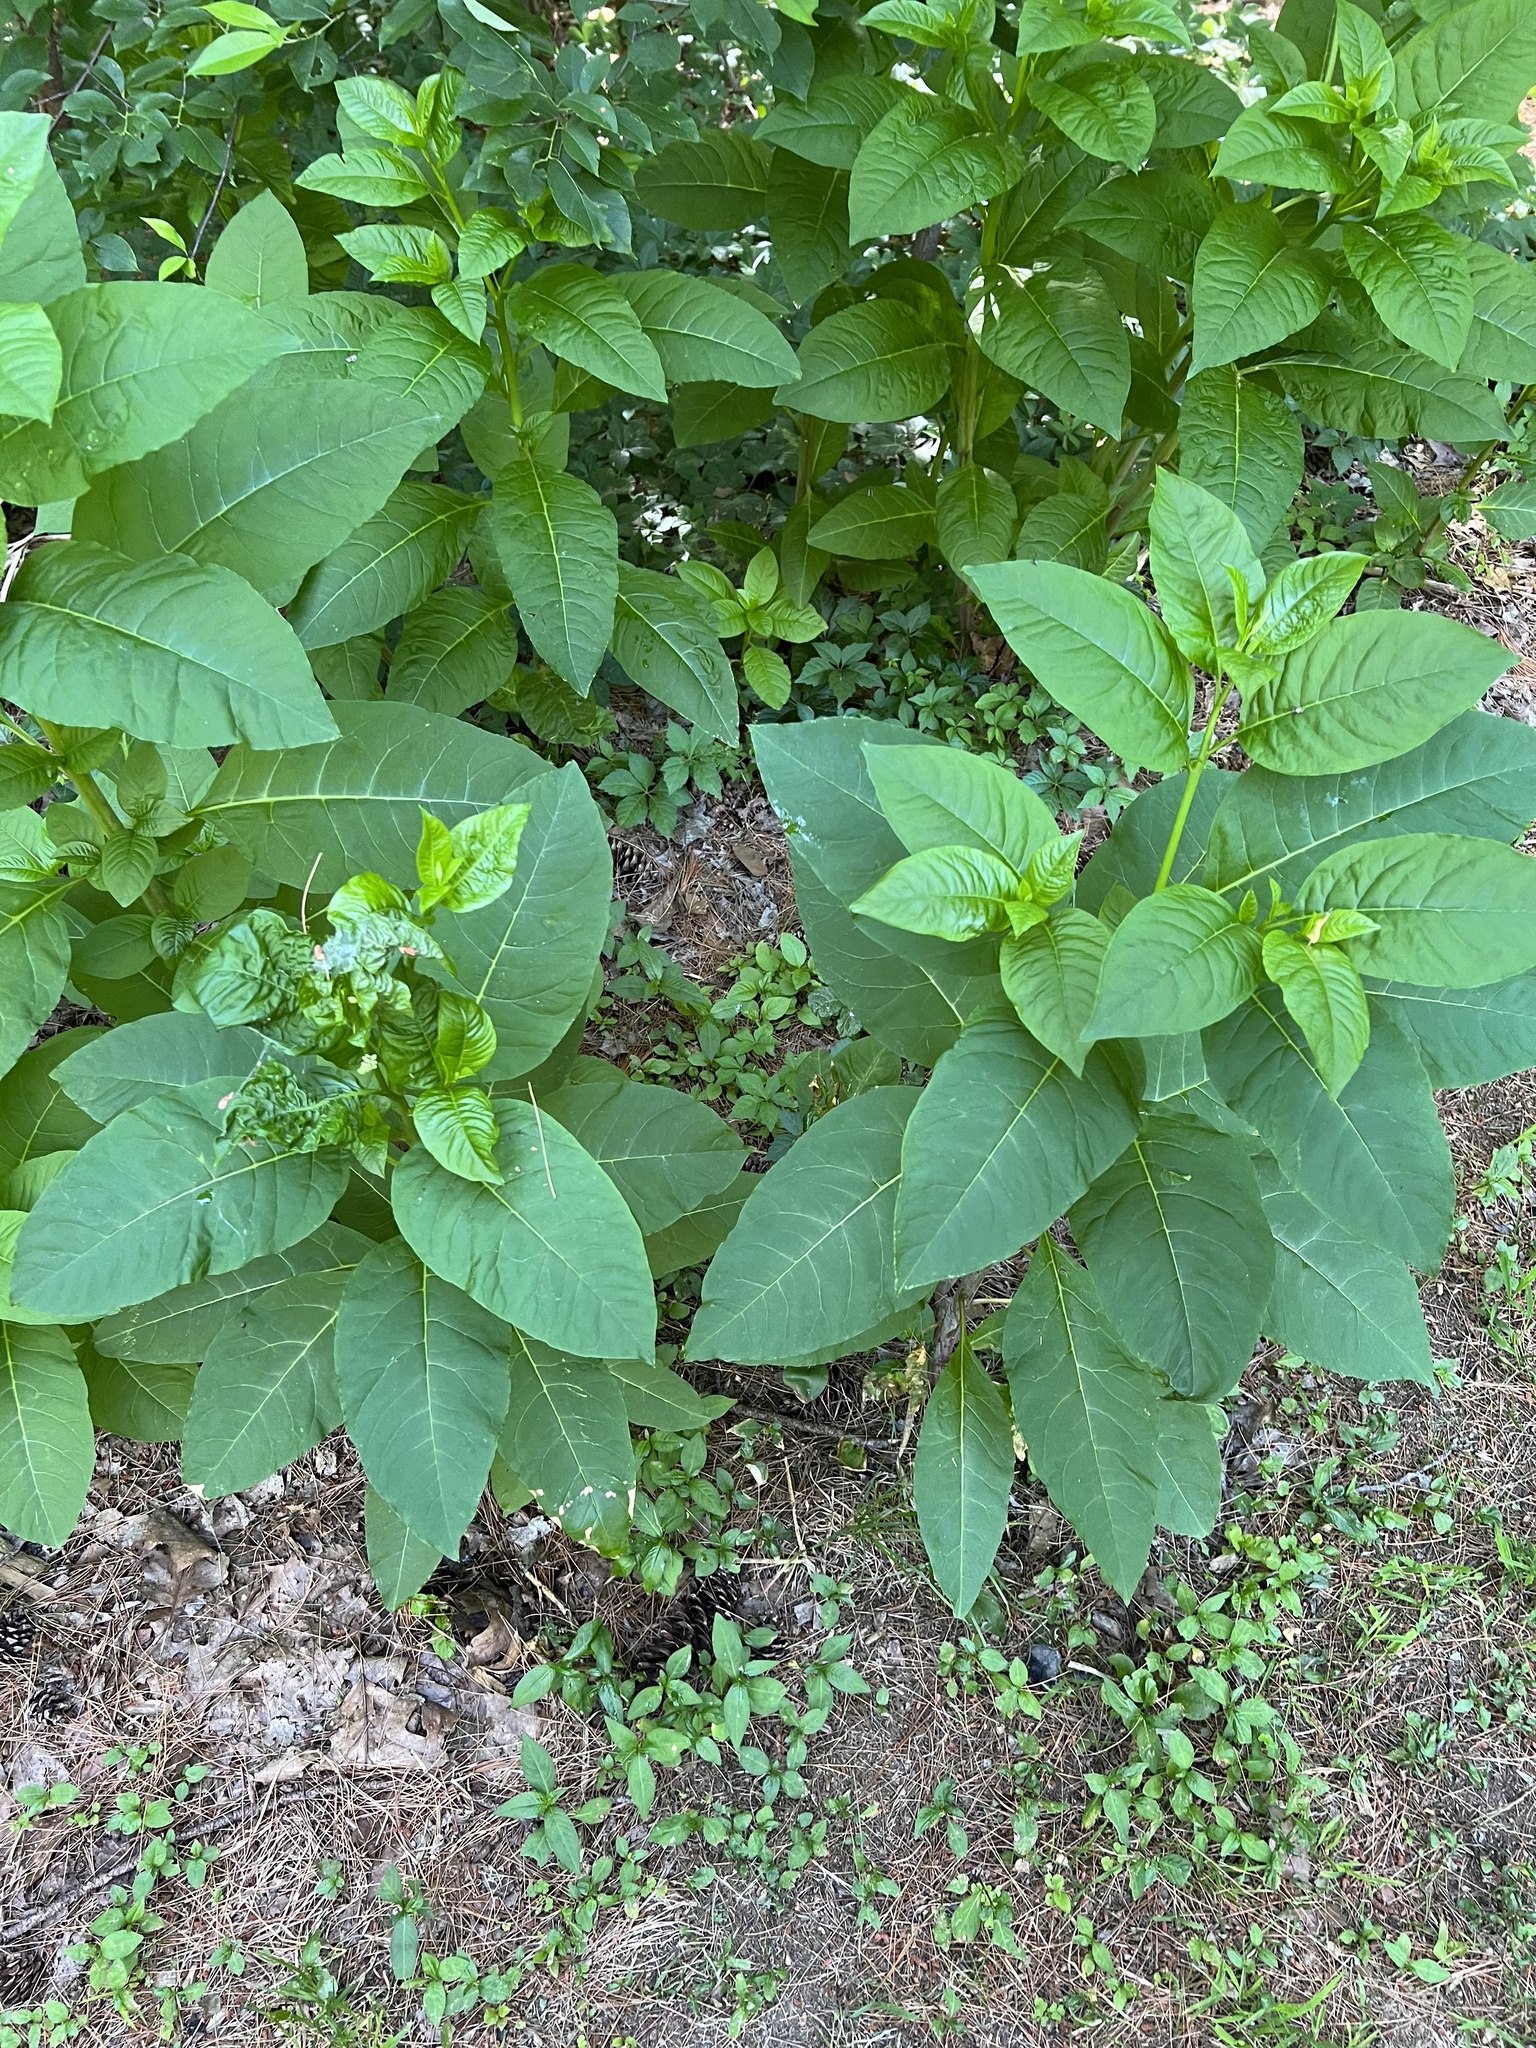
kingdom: Plantae
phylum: Tracheophyta
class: Magnoliopsida
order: Caryophyllales
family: Phytolaccaceae
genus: Phytolacca
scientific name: Phytolacca americana
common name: American pokeweed
